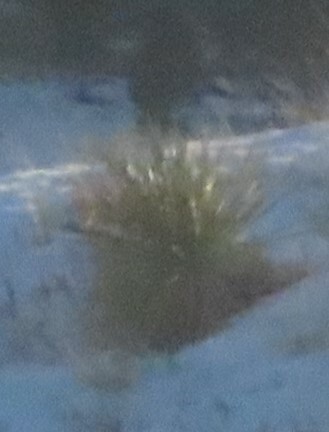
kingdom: Plantae
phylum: Tracheophyta
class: Liliopsida
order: Asparagales
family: Asparagaceae
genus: Yucca
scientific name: Yucca glauca
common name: Great plains yucca
